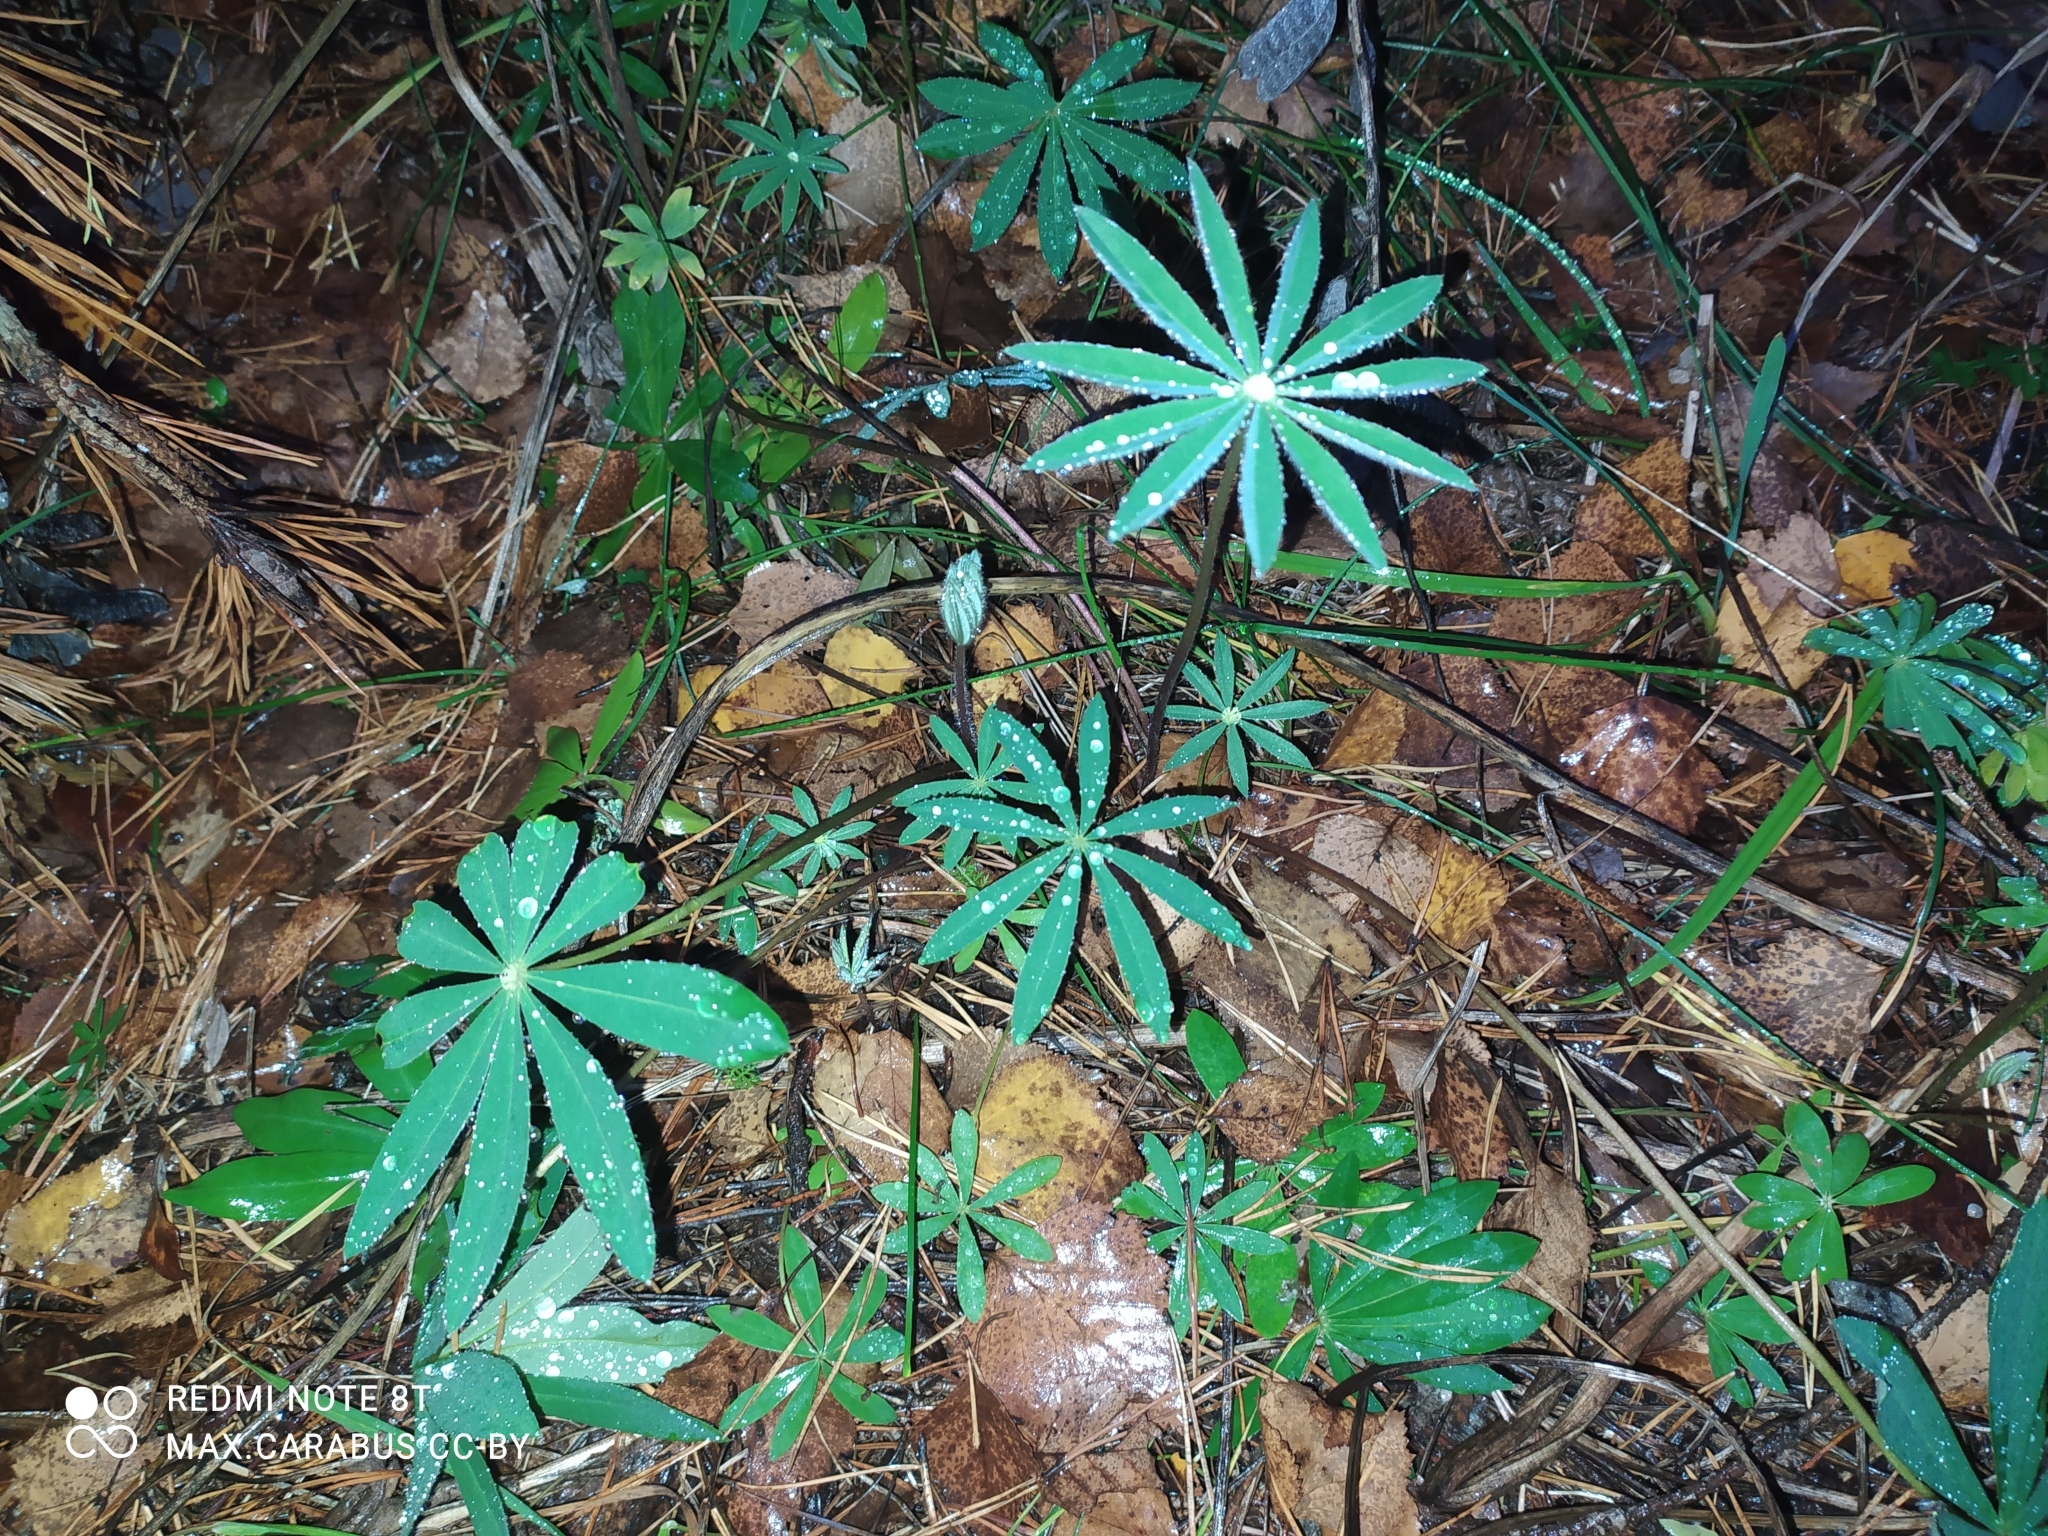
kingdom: Plantae
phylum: Tracheophyta
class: Magnoliopsida
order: Fabales
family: Fabaceae
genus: Lupinus
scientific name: Lupinus polyphyllus
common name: Garden lupin
